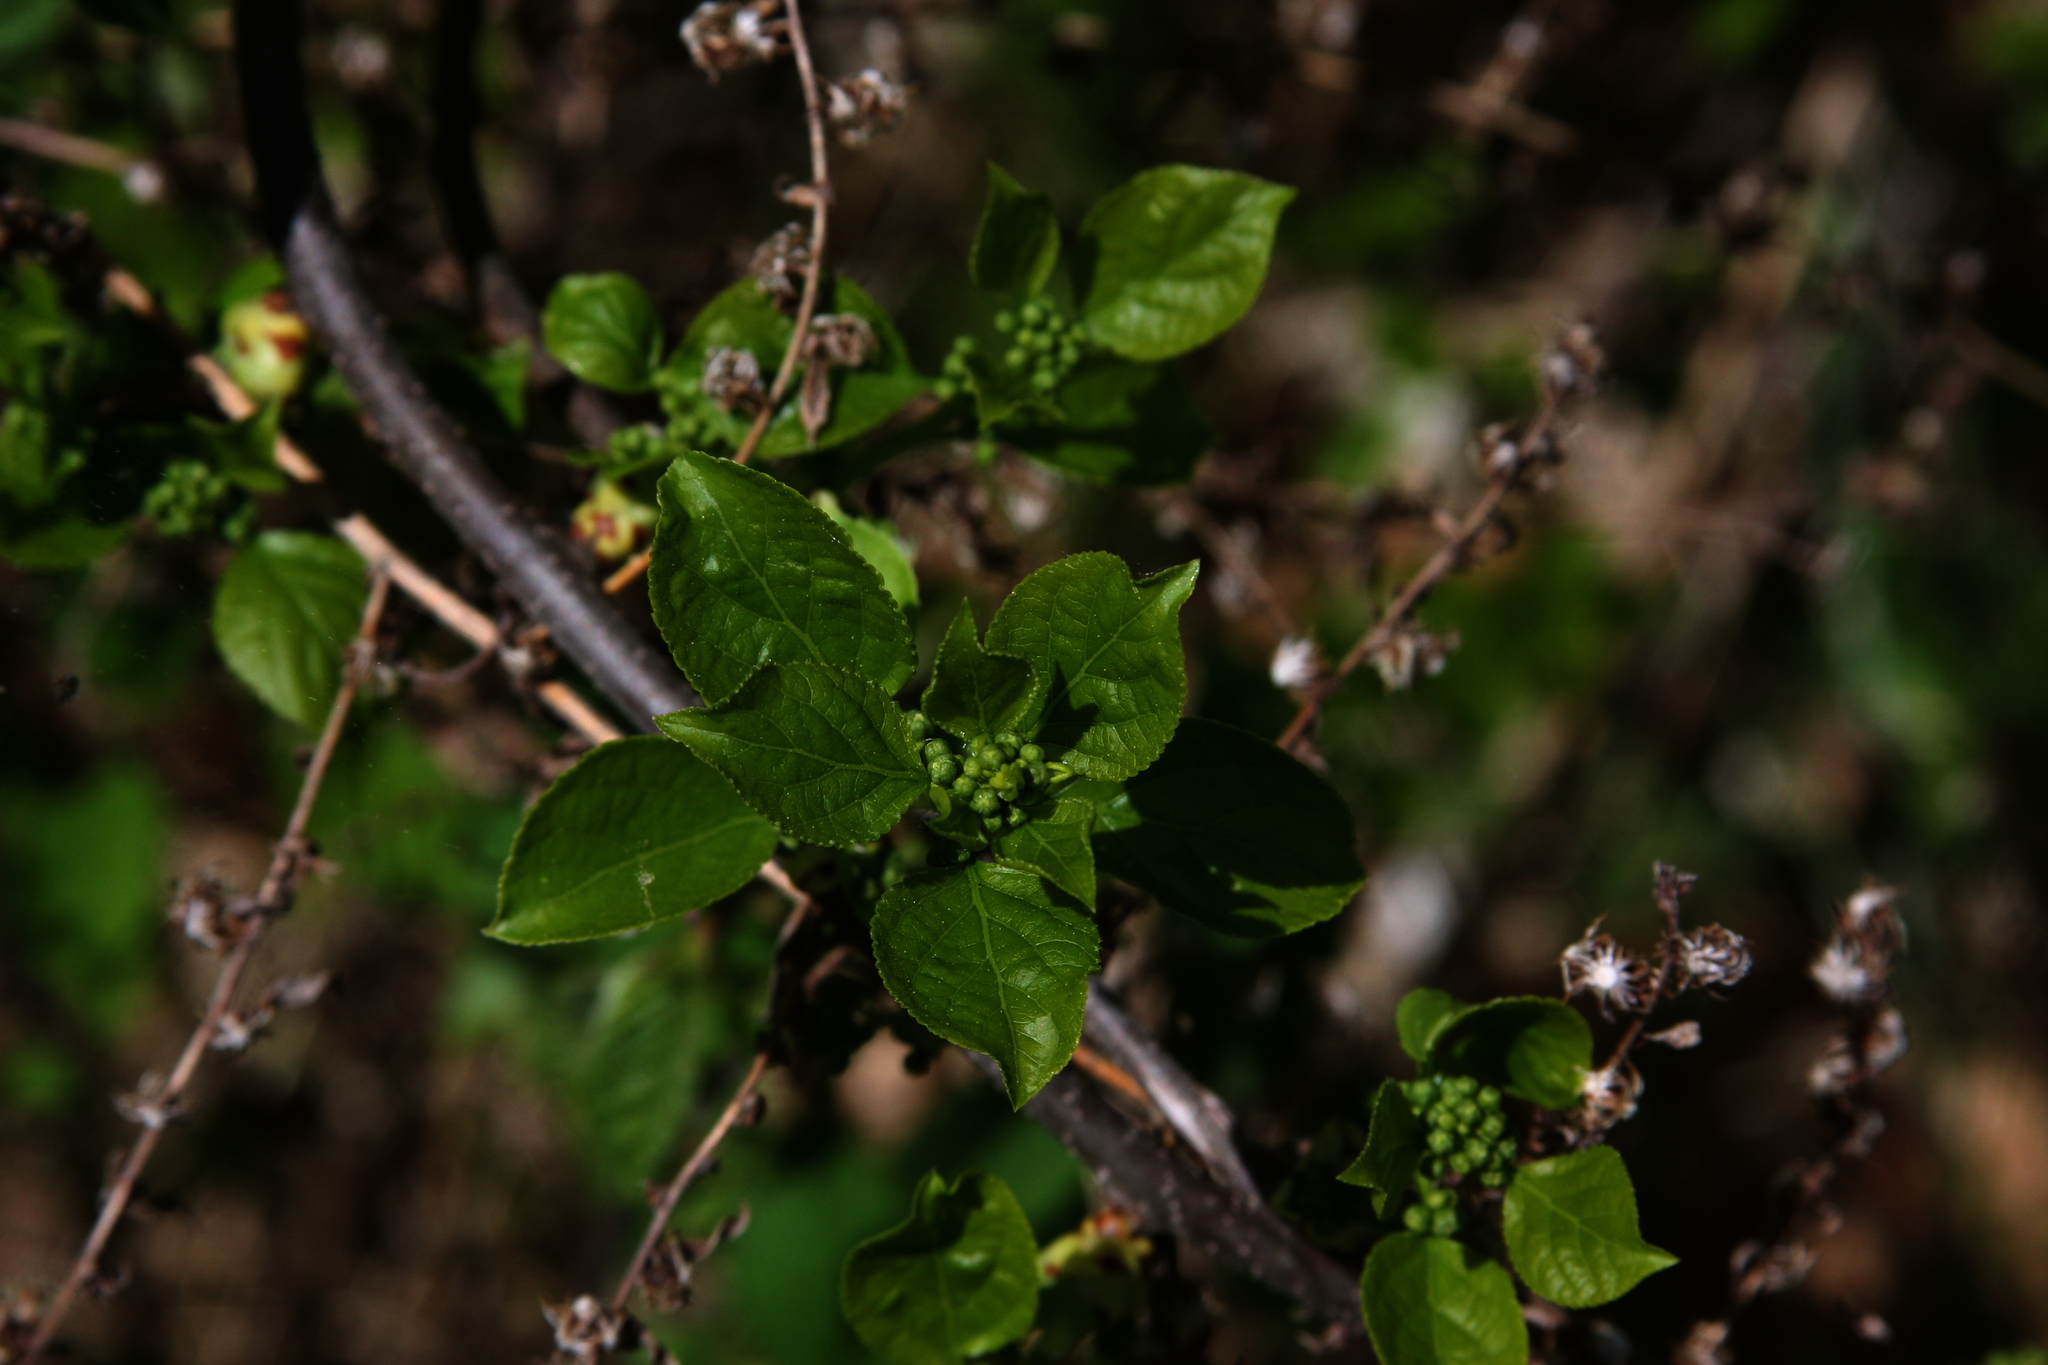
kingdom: Plantae
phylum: Tracheophyta
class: Magnoliopsida
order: Celastrales
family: Celastraceae
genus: Celastrus
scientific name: Celastrus orbiculatus
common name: Oriental bittersweet
